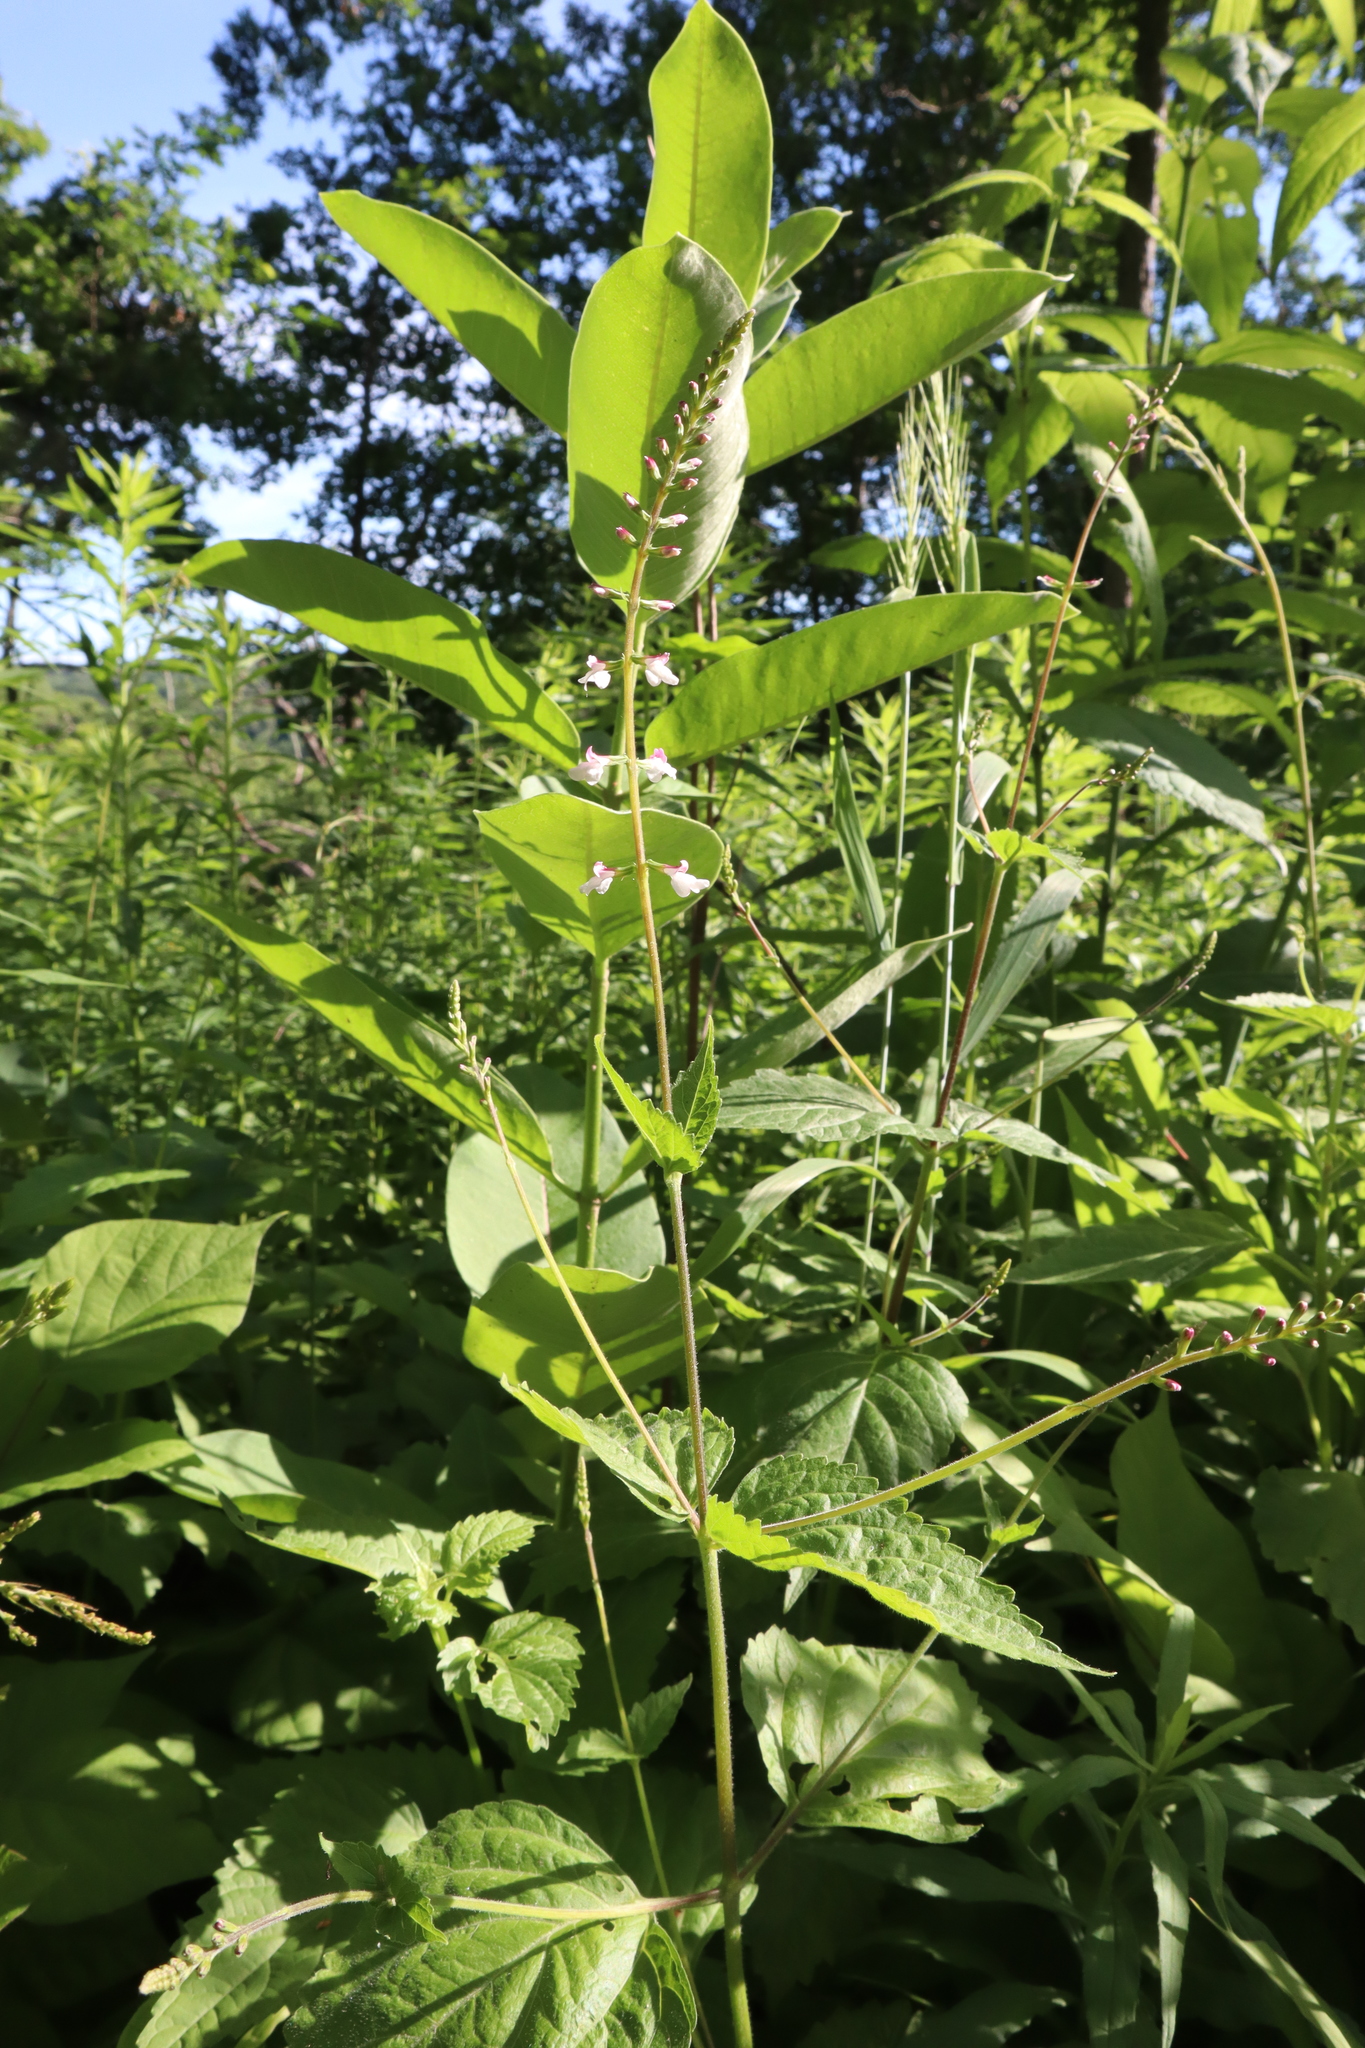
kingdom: Plantae
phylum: Tracheophyta
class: Magnoliopsida
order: Lamiales
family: Phrymaceae
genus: Phryma
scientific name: Phryma leptostachya
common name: American lopseed
